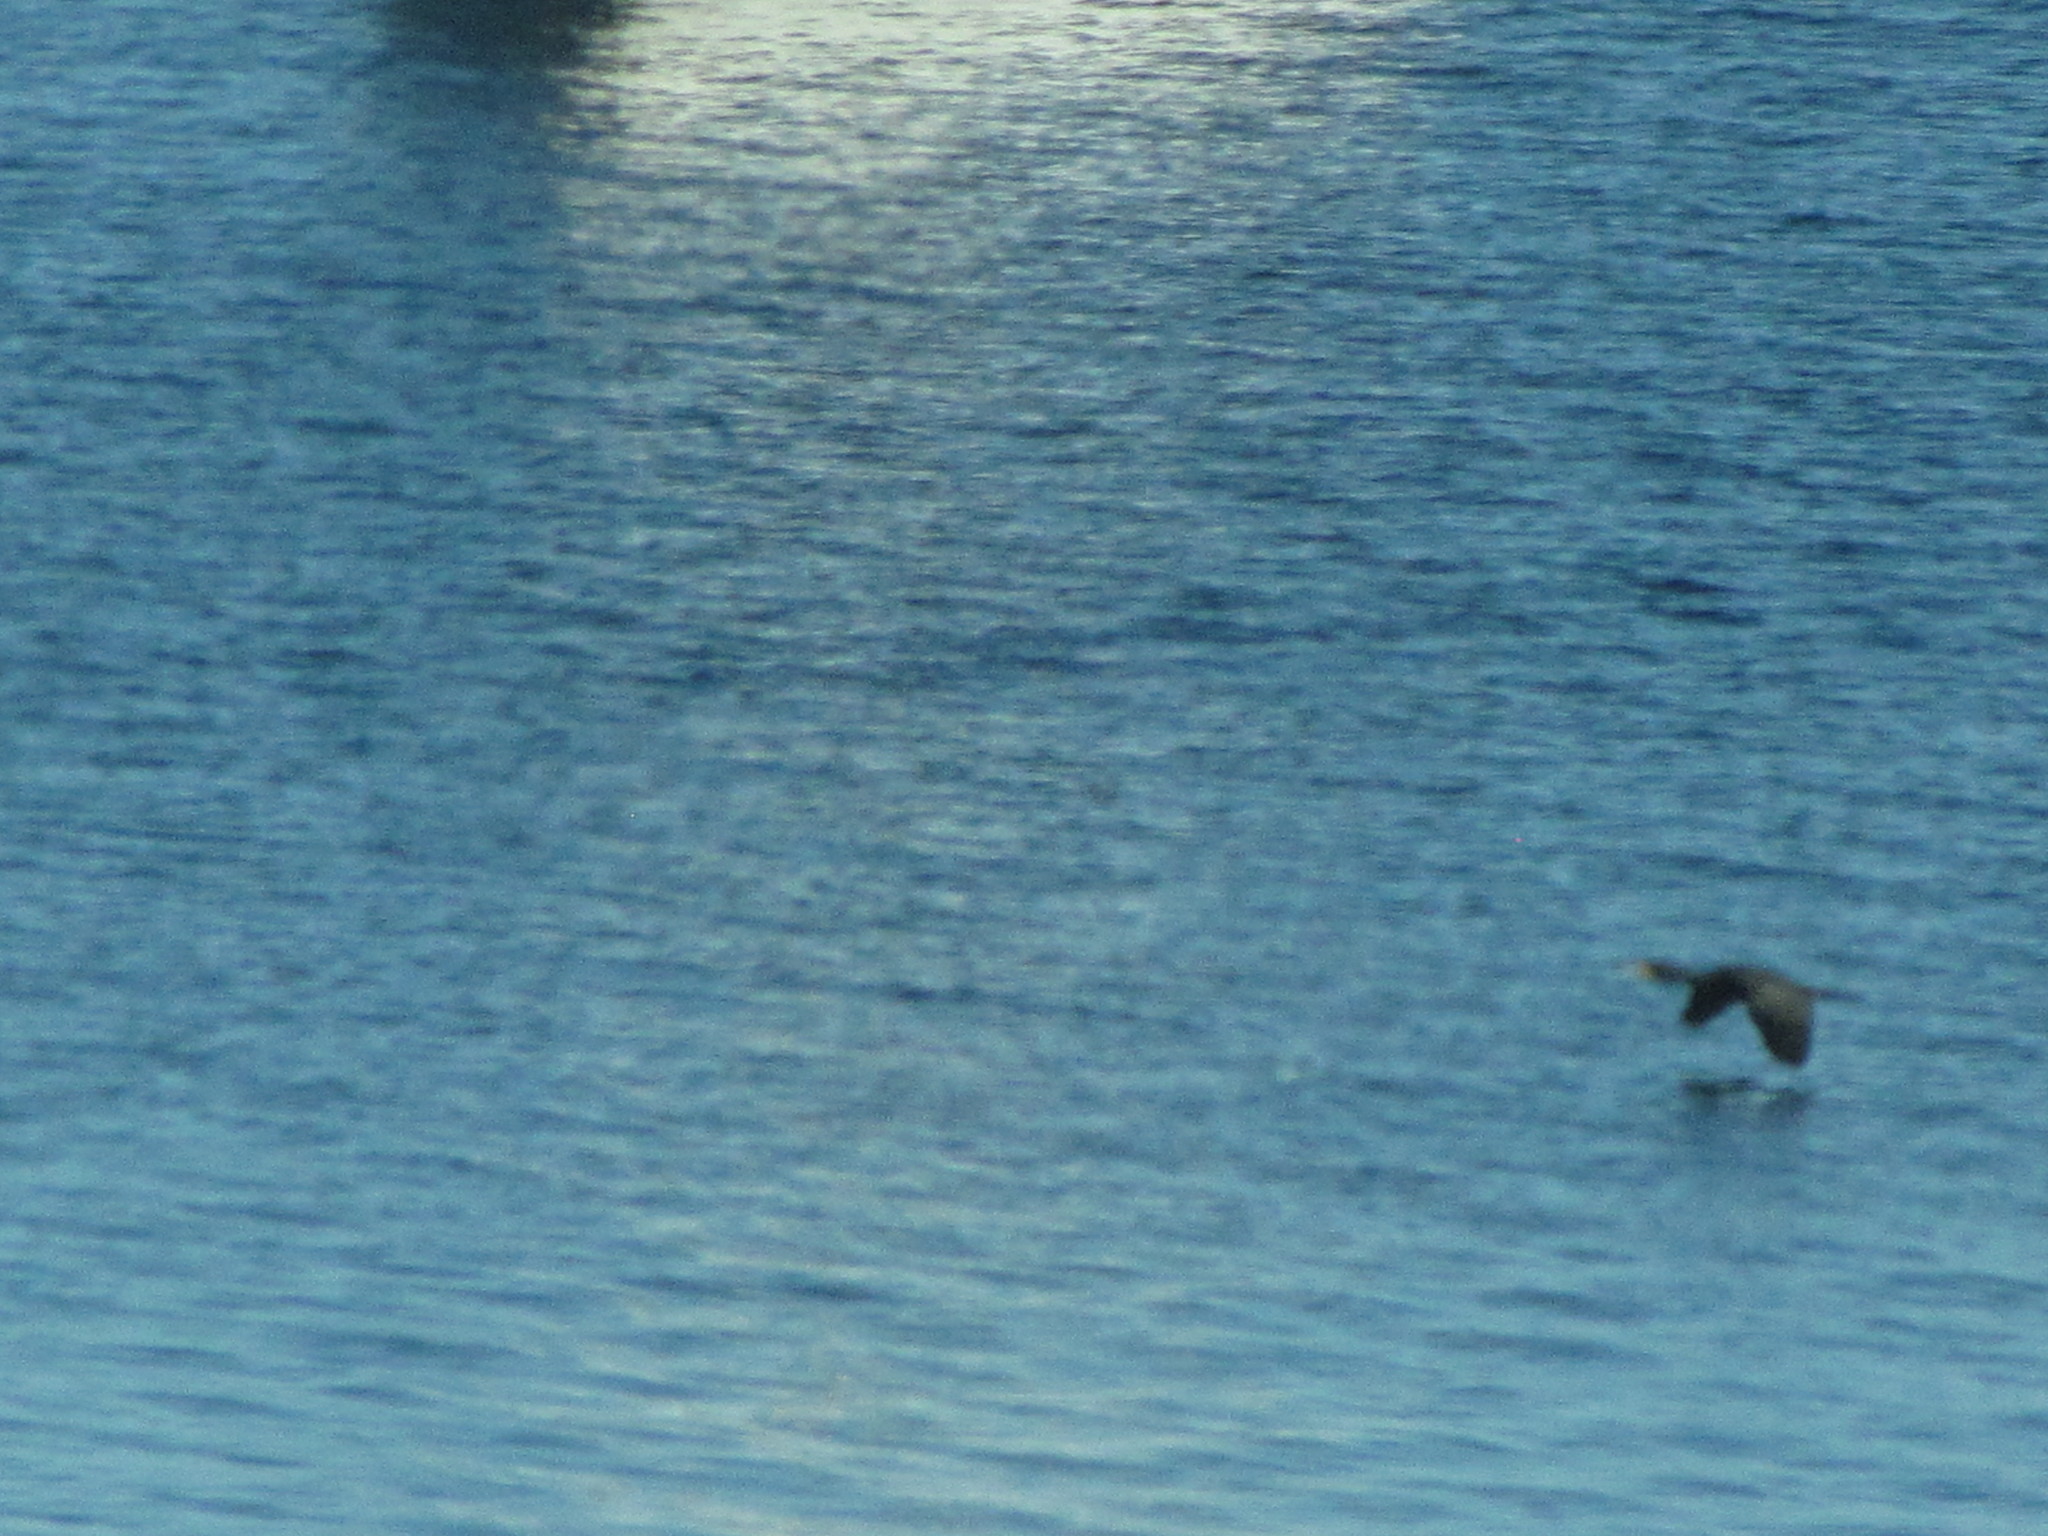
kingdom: Animalia
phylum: Chordata
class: Aves
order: Suliformes
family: Phalacrocoracidae
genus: Phalacrocorax
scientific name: Phalacrocorax auritus
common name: Double-crested cormorant
